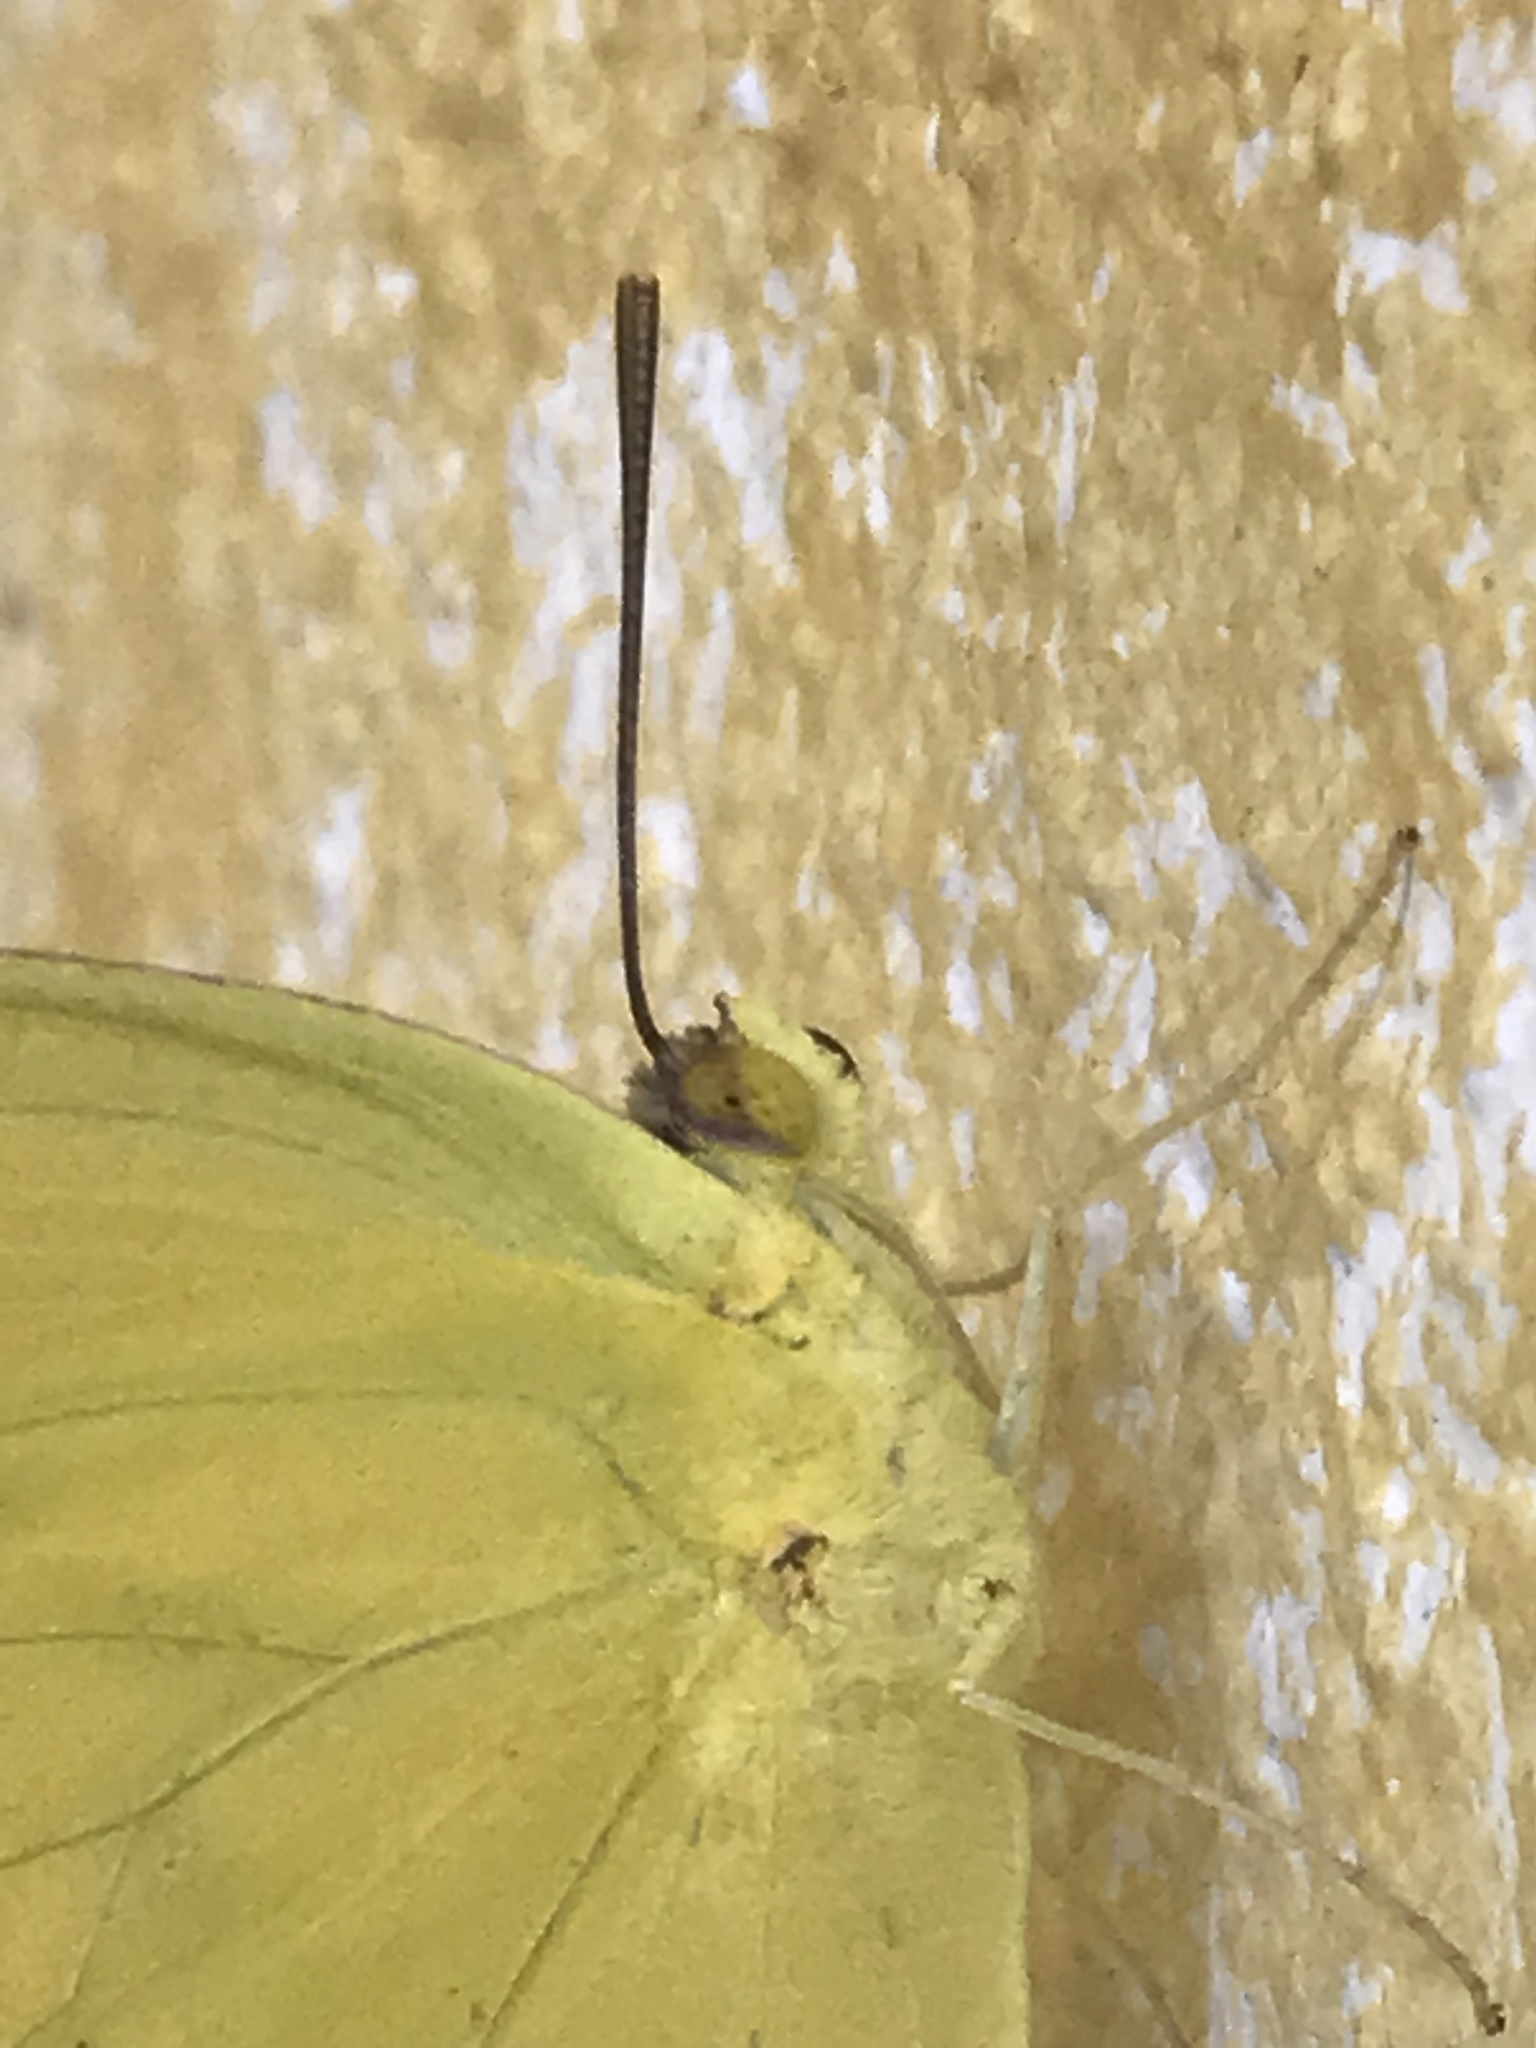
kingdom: Animalia
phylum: Arthropoda
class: Insecta
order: Lepidoptera
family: Pieridae
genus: Phoebis
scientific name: Phoebis agarithe
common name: Large orange sulphur
